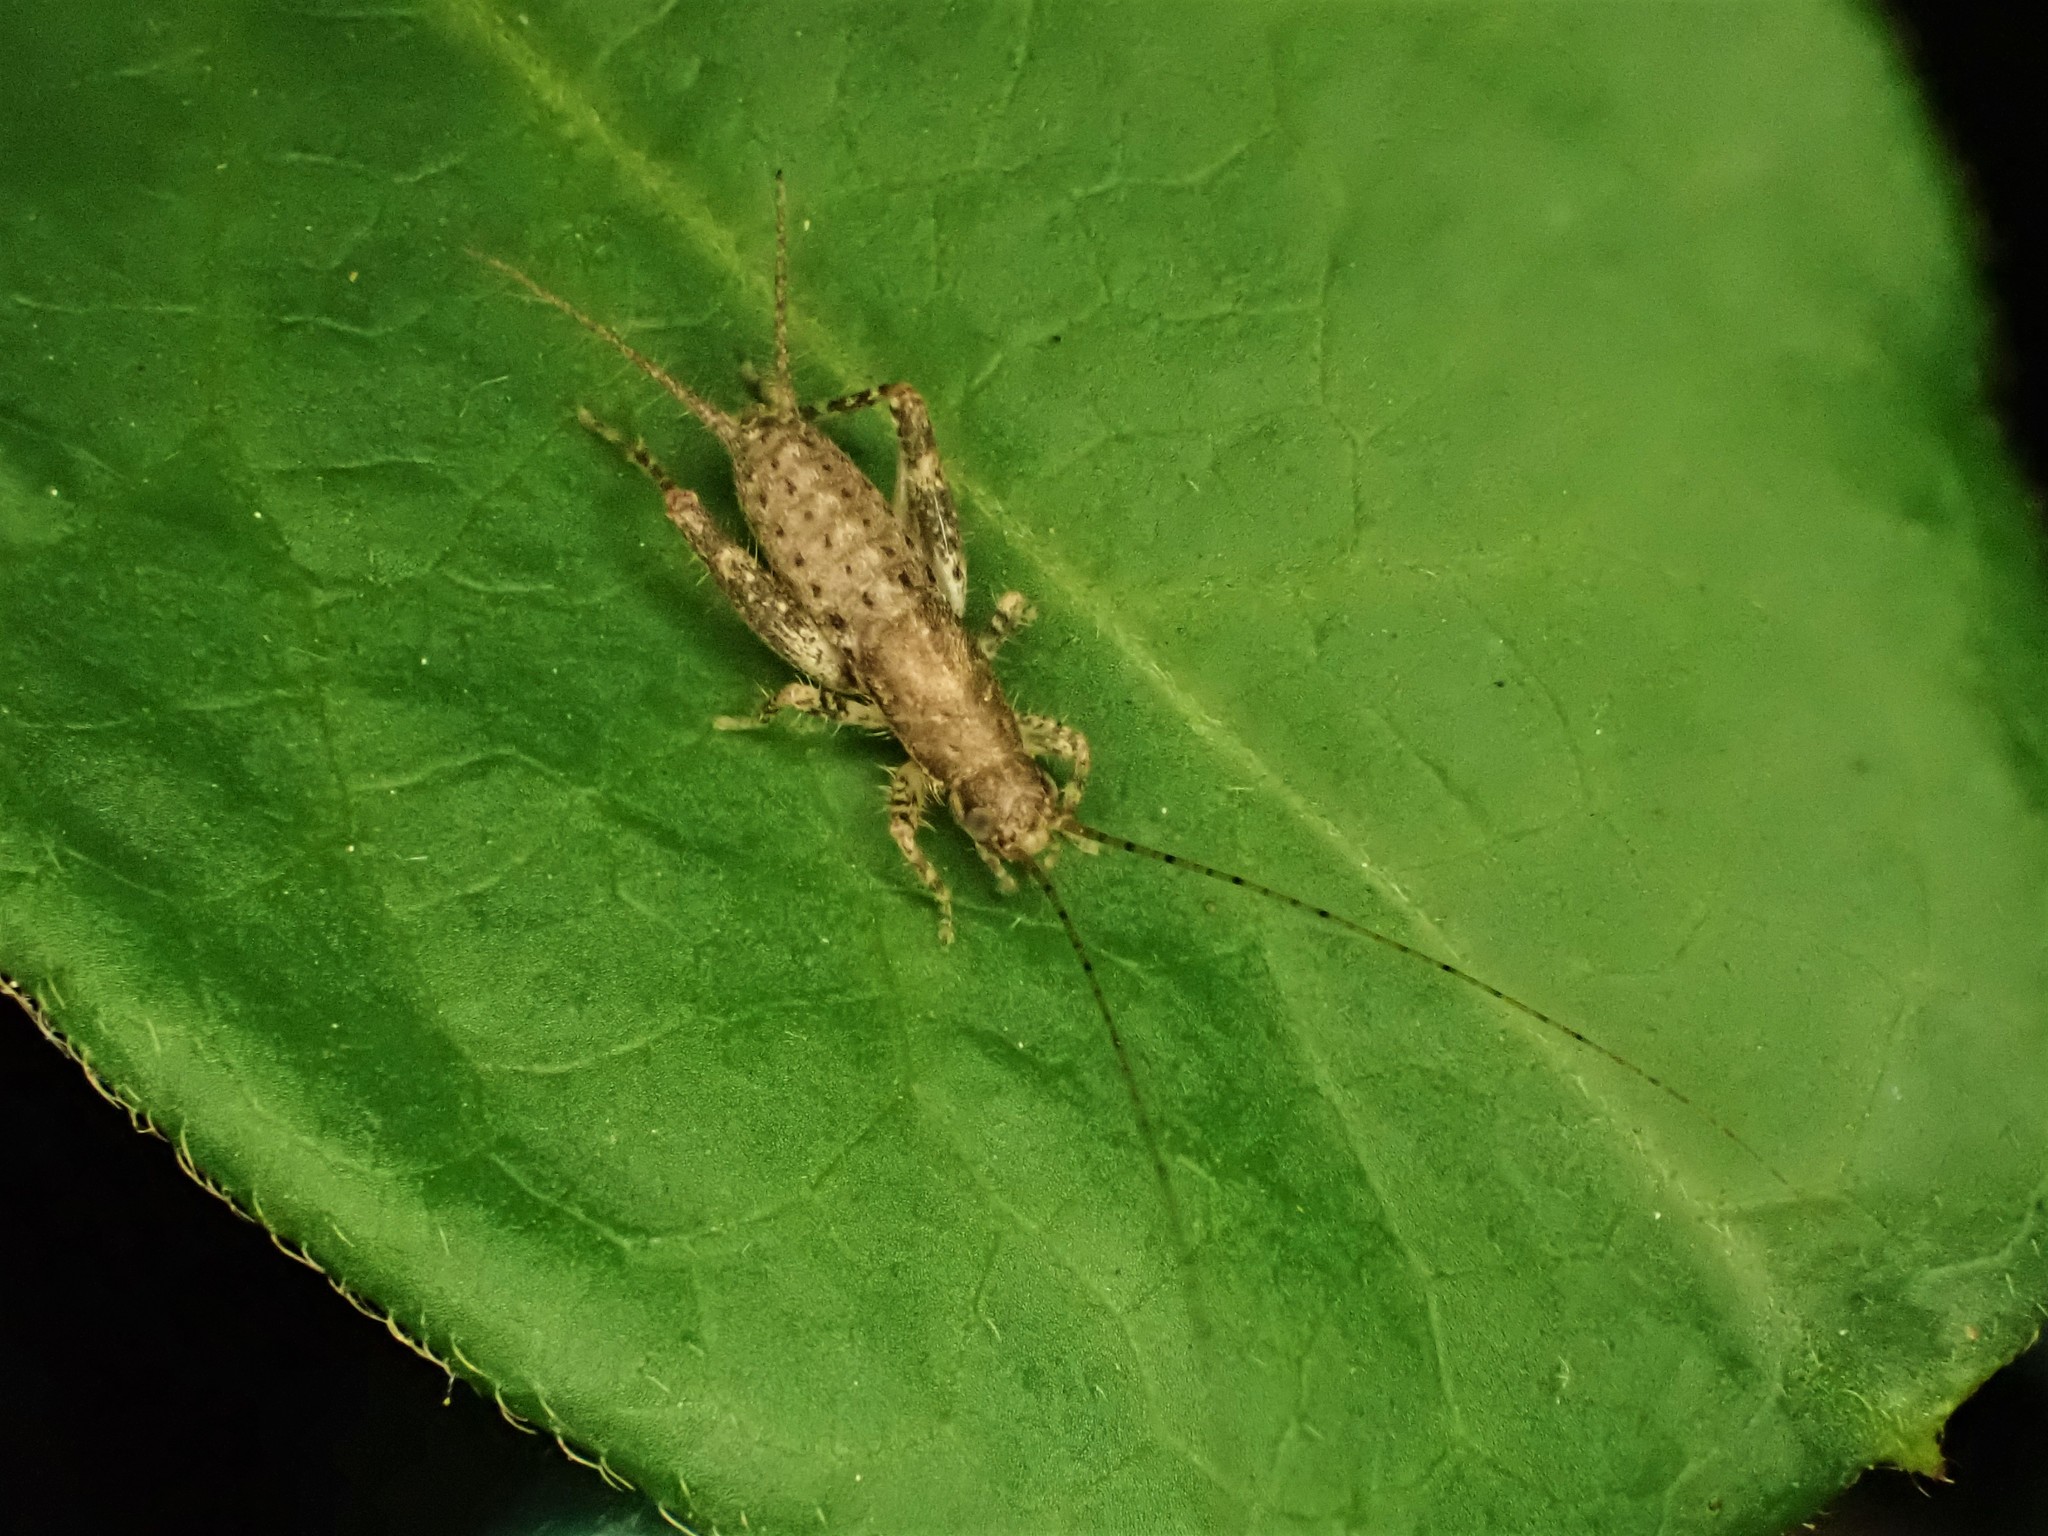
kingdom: Animalia
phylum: Arthropoda
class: Insecta
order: Orthoptera
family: Mogoplistidae
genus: Ornebius
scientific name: Ornebius aperta
